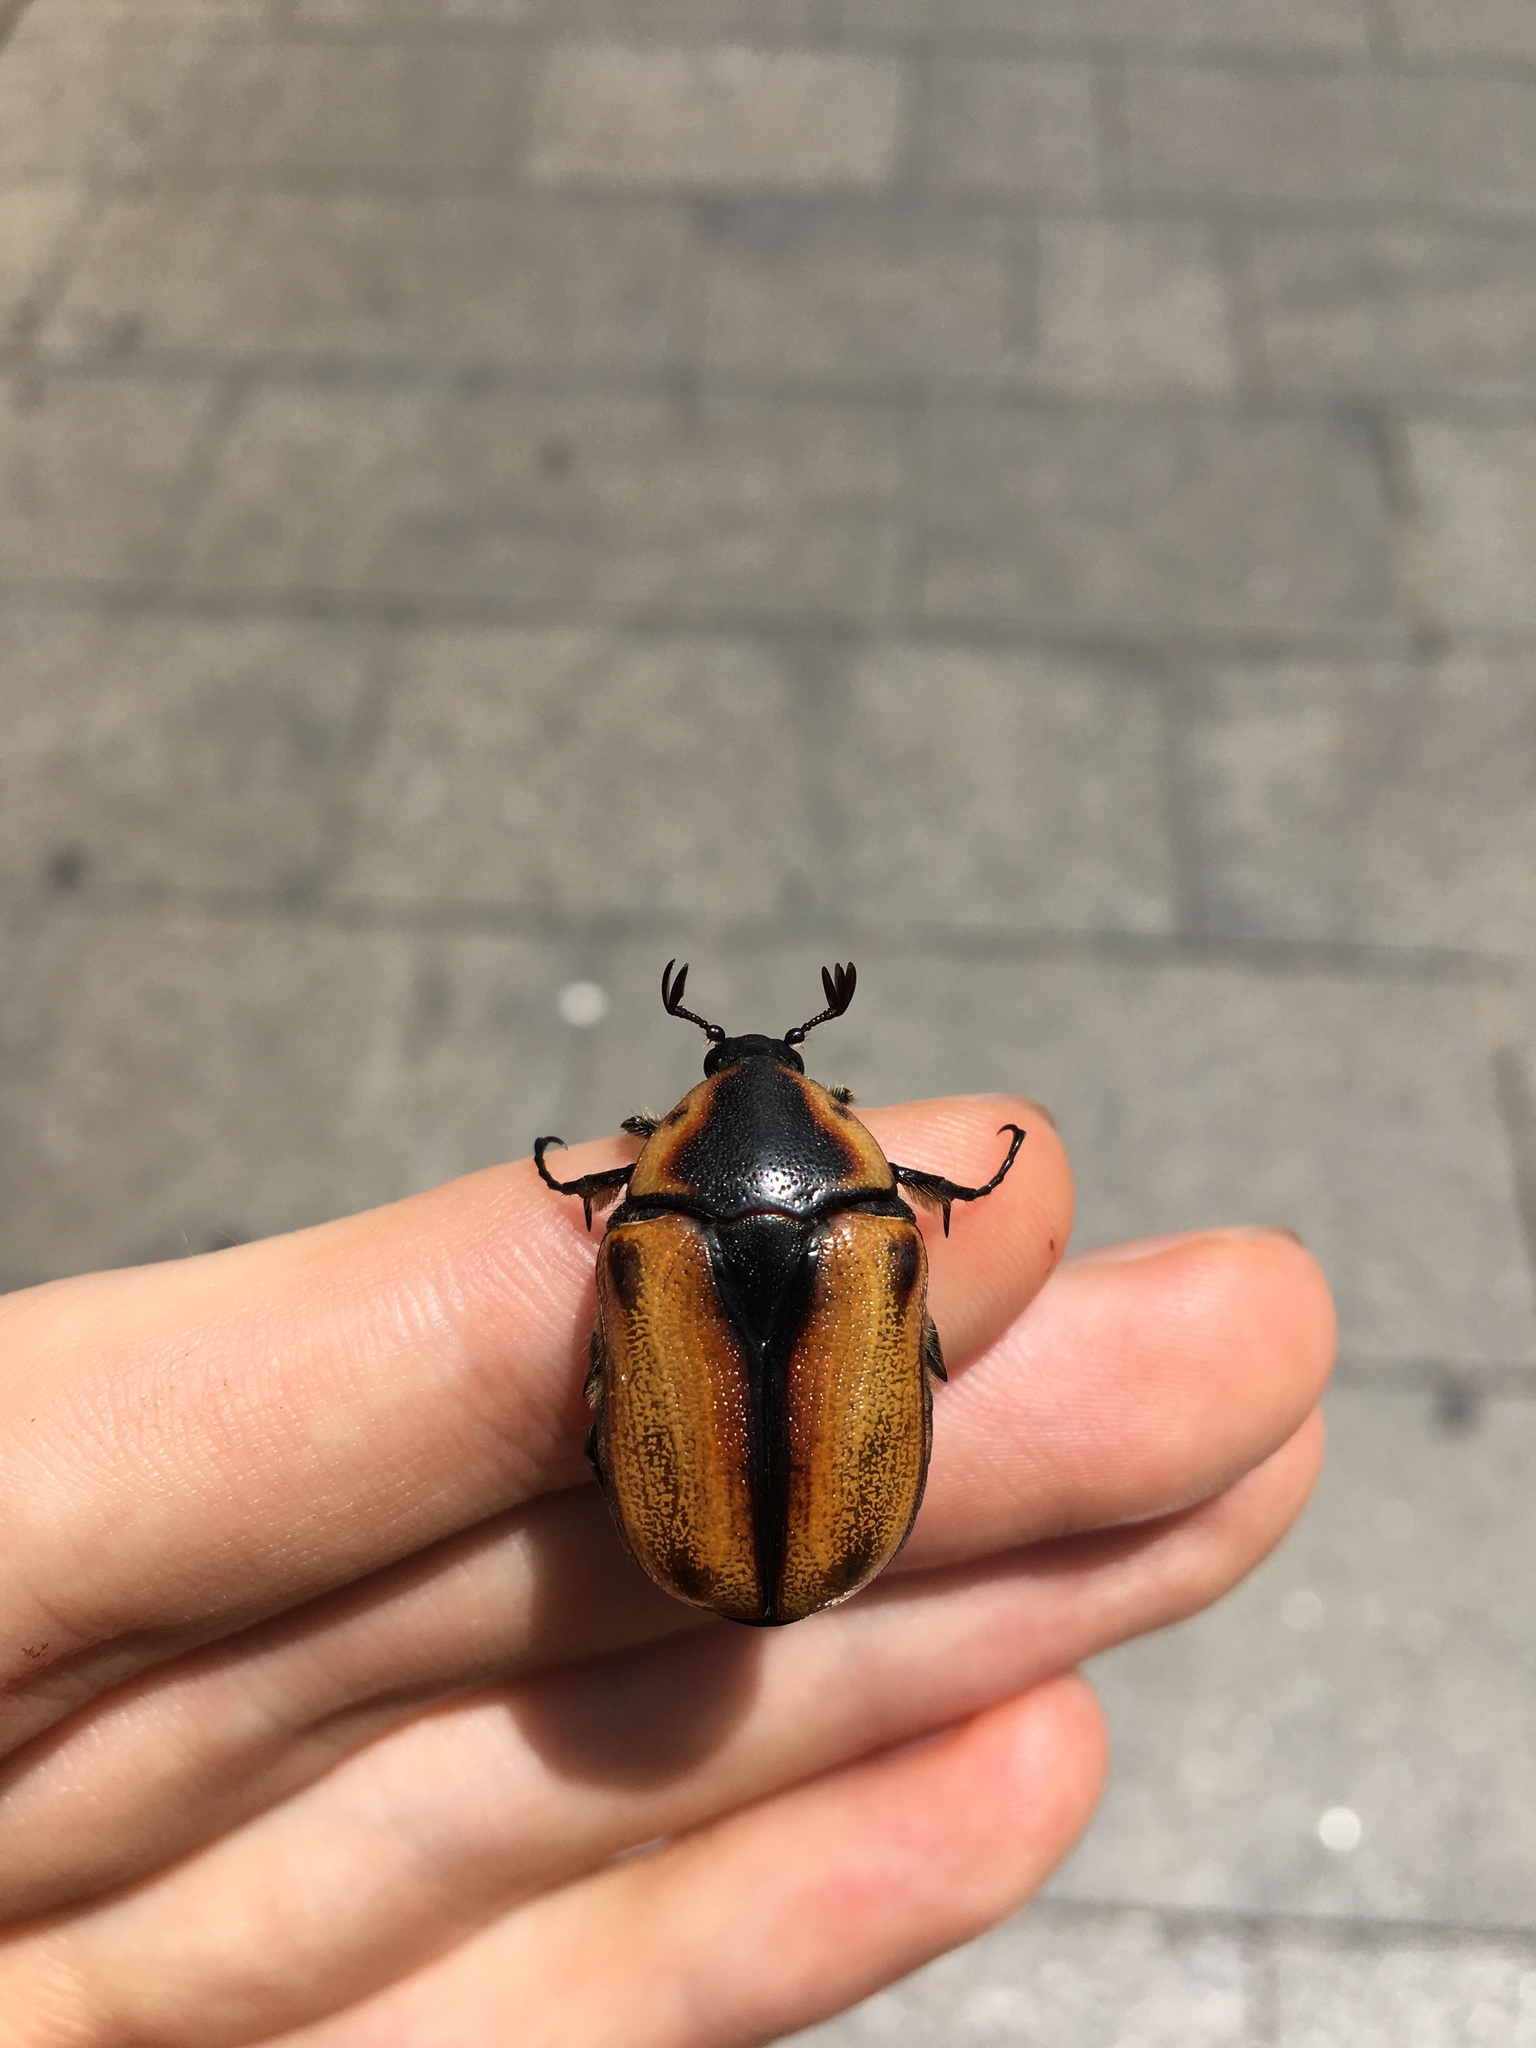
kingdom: Animalia
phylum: Arthropoda
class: Insecta
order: Coleoptera
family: Scarabaeidae
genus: Chondropyga
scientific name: Chondropyga dorsalis
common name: Cowboy beetle
